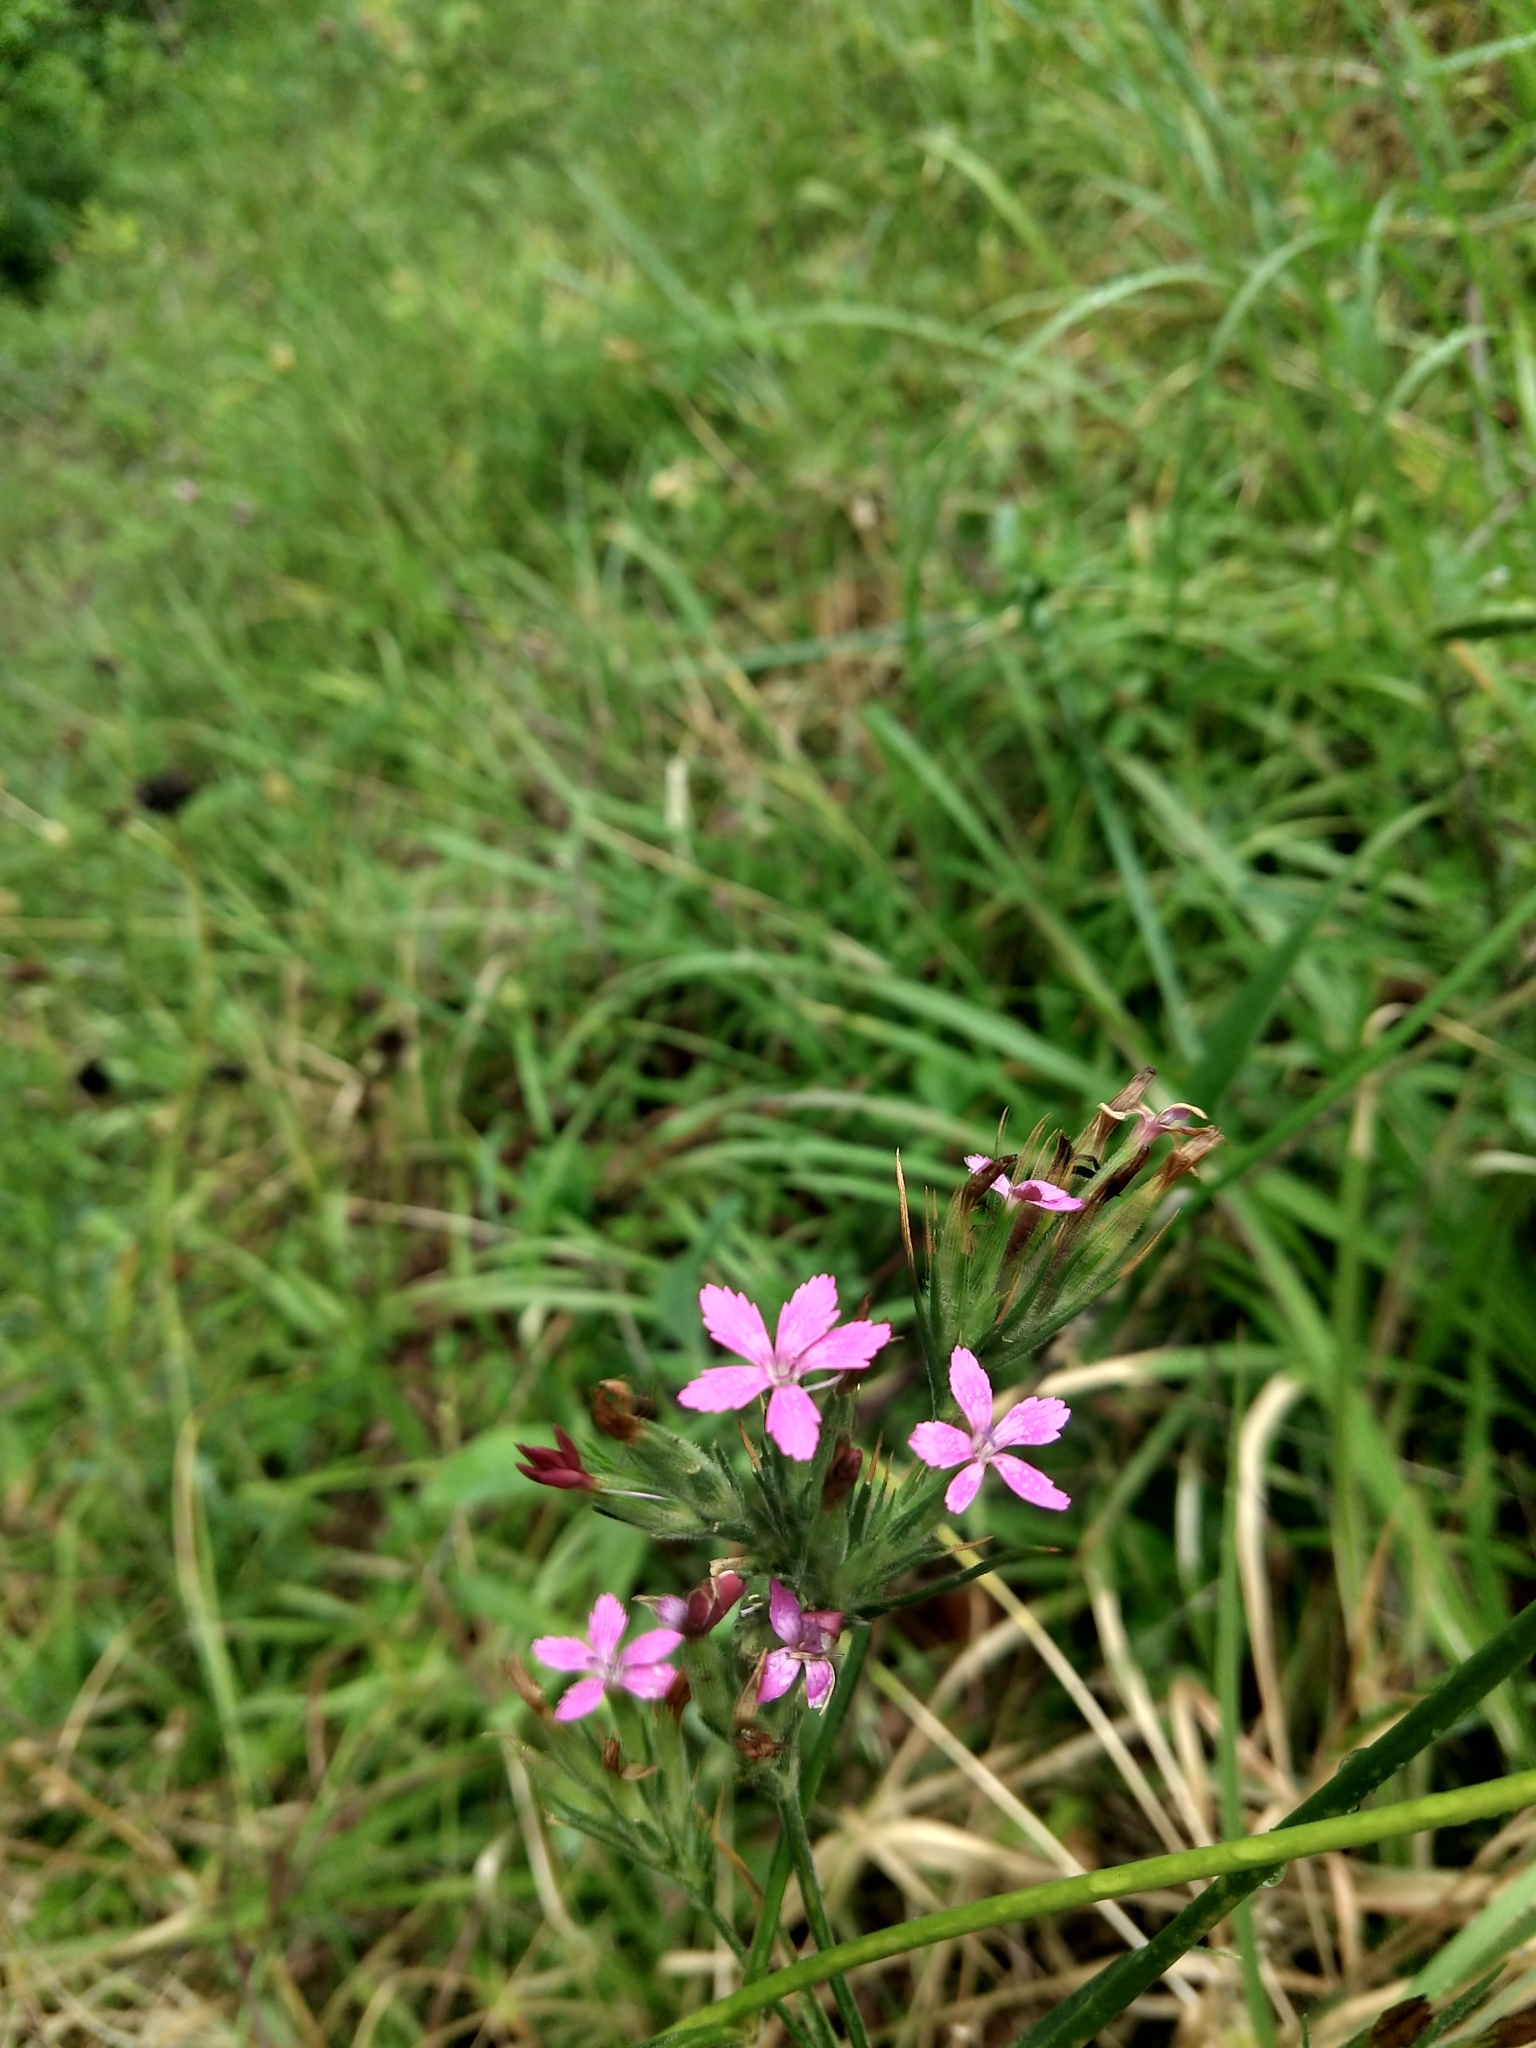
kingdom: Plantae
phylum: Tracheophyta
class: Magnoliopsida
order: Caryophyllales
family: Caryophyllaceae
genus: Dianthus
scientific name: Dianthus armeria
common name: Deptford pink
